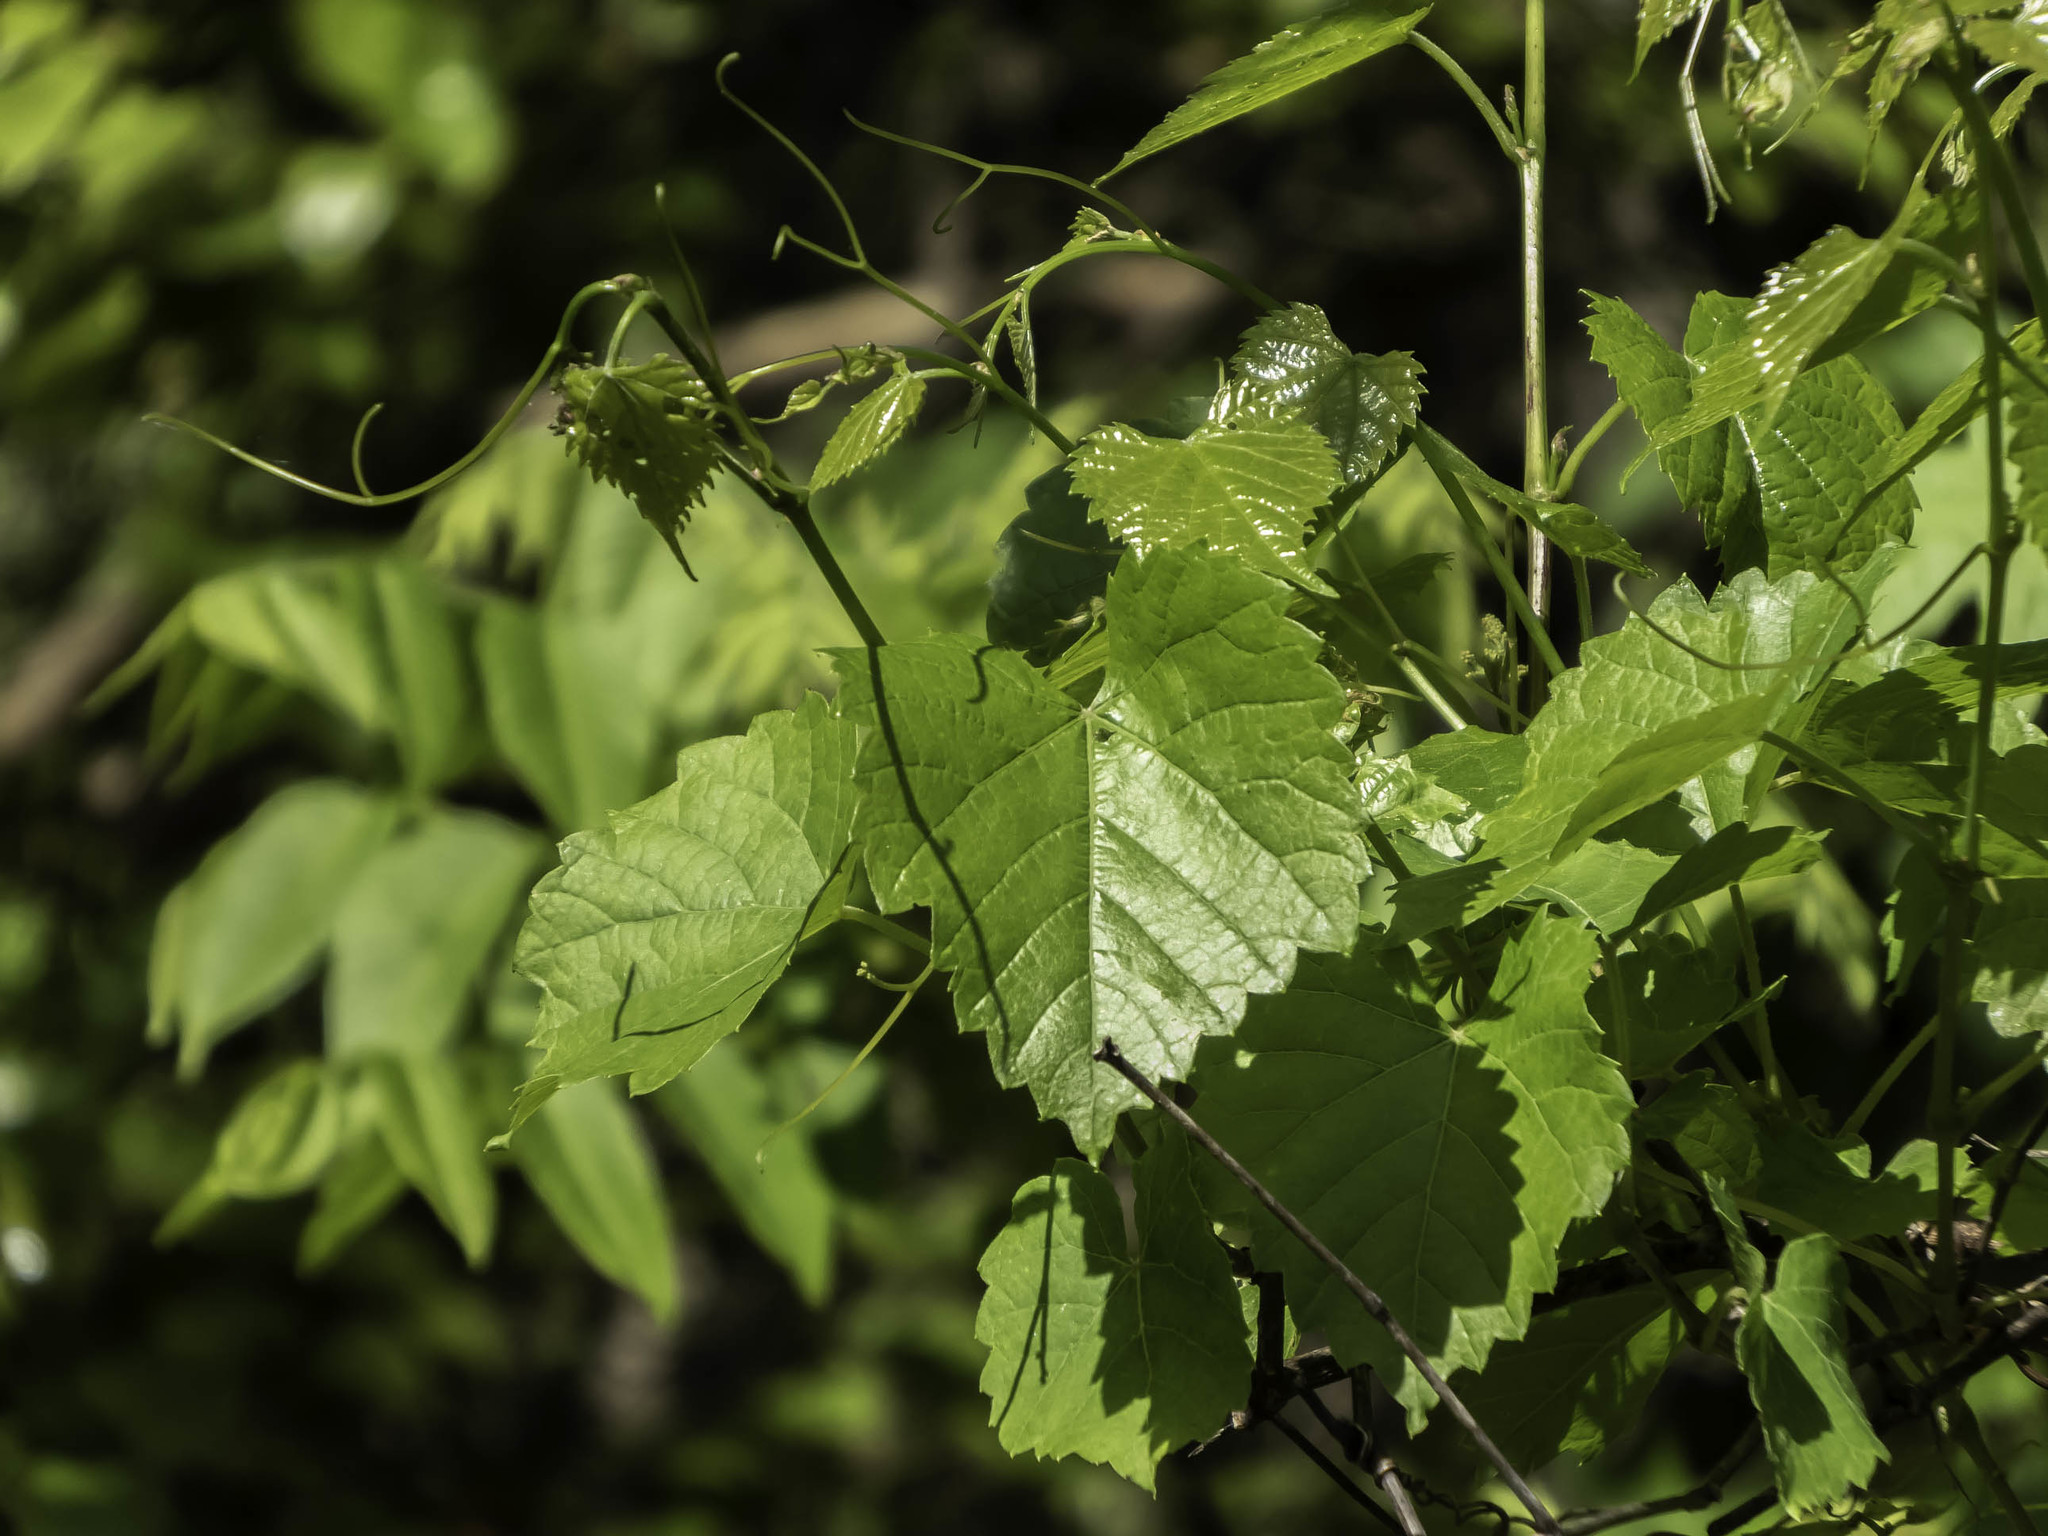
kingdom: Plantae
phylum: Tracheophyta
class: Magnoliopsida
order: Vitales
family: Vitaceae
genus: Ampelopsis
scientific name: Ampelopsis glandulosa
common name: Amur peppervine
